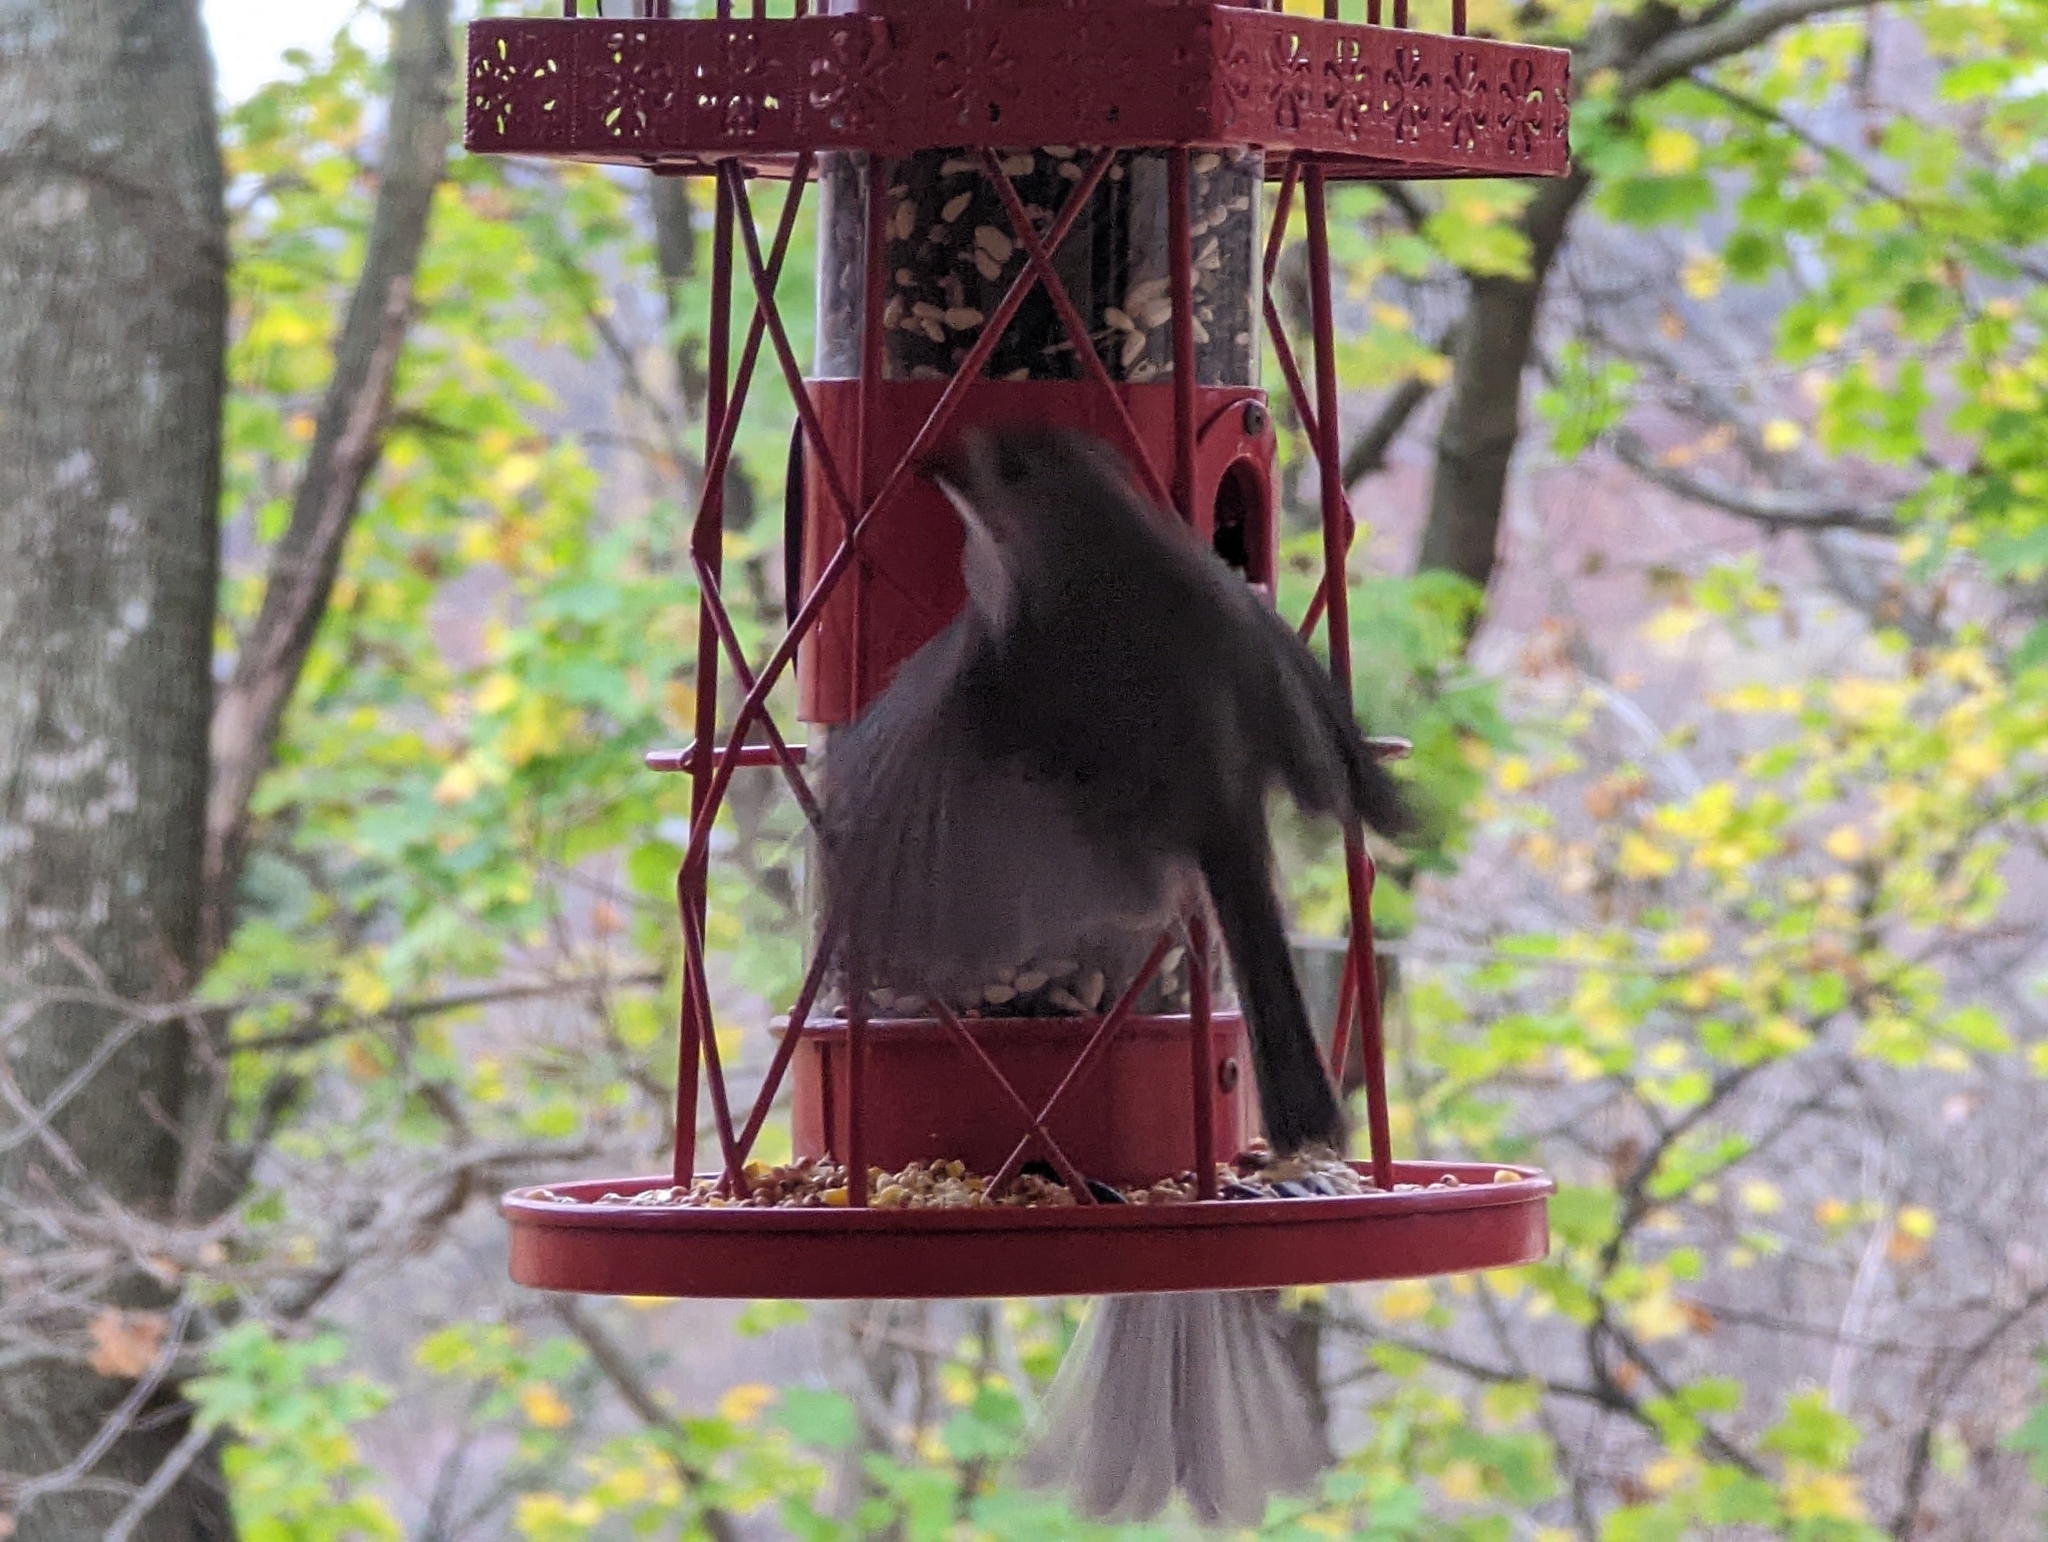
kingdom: Animalia
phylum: Chordata
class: Aves
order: Passeriformes
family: Paridae
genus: Baeolophus
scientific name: Baeolophus bicolor
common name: Tufted titmouse
